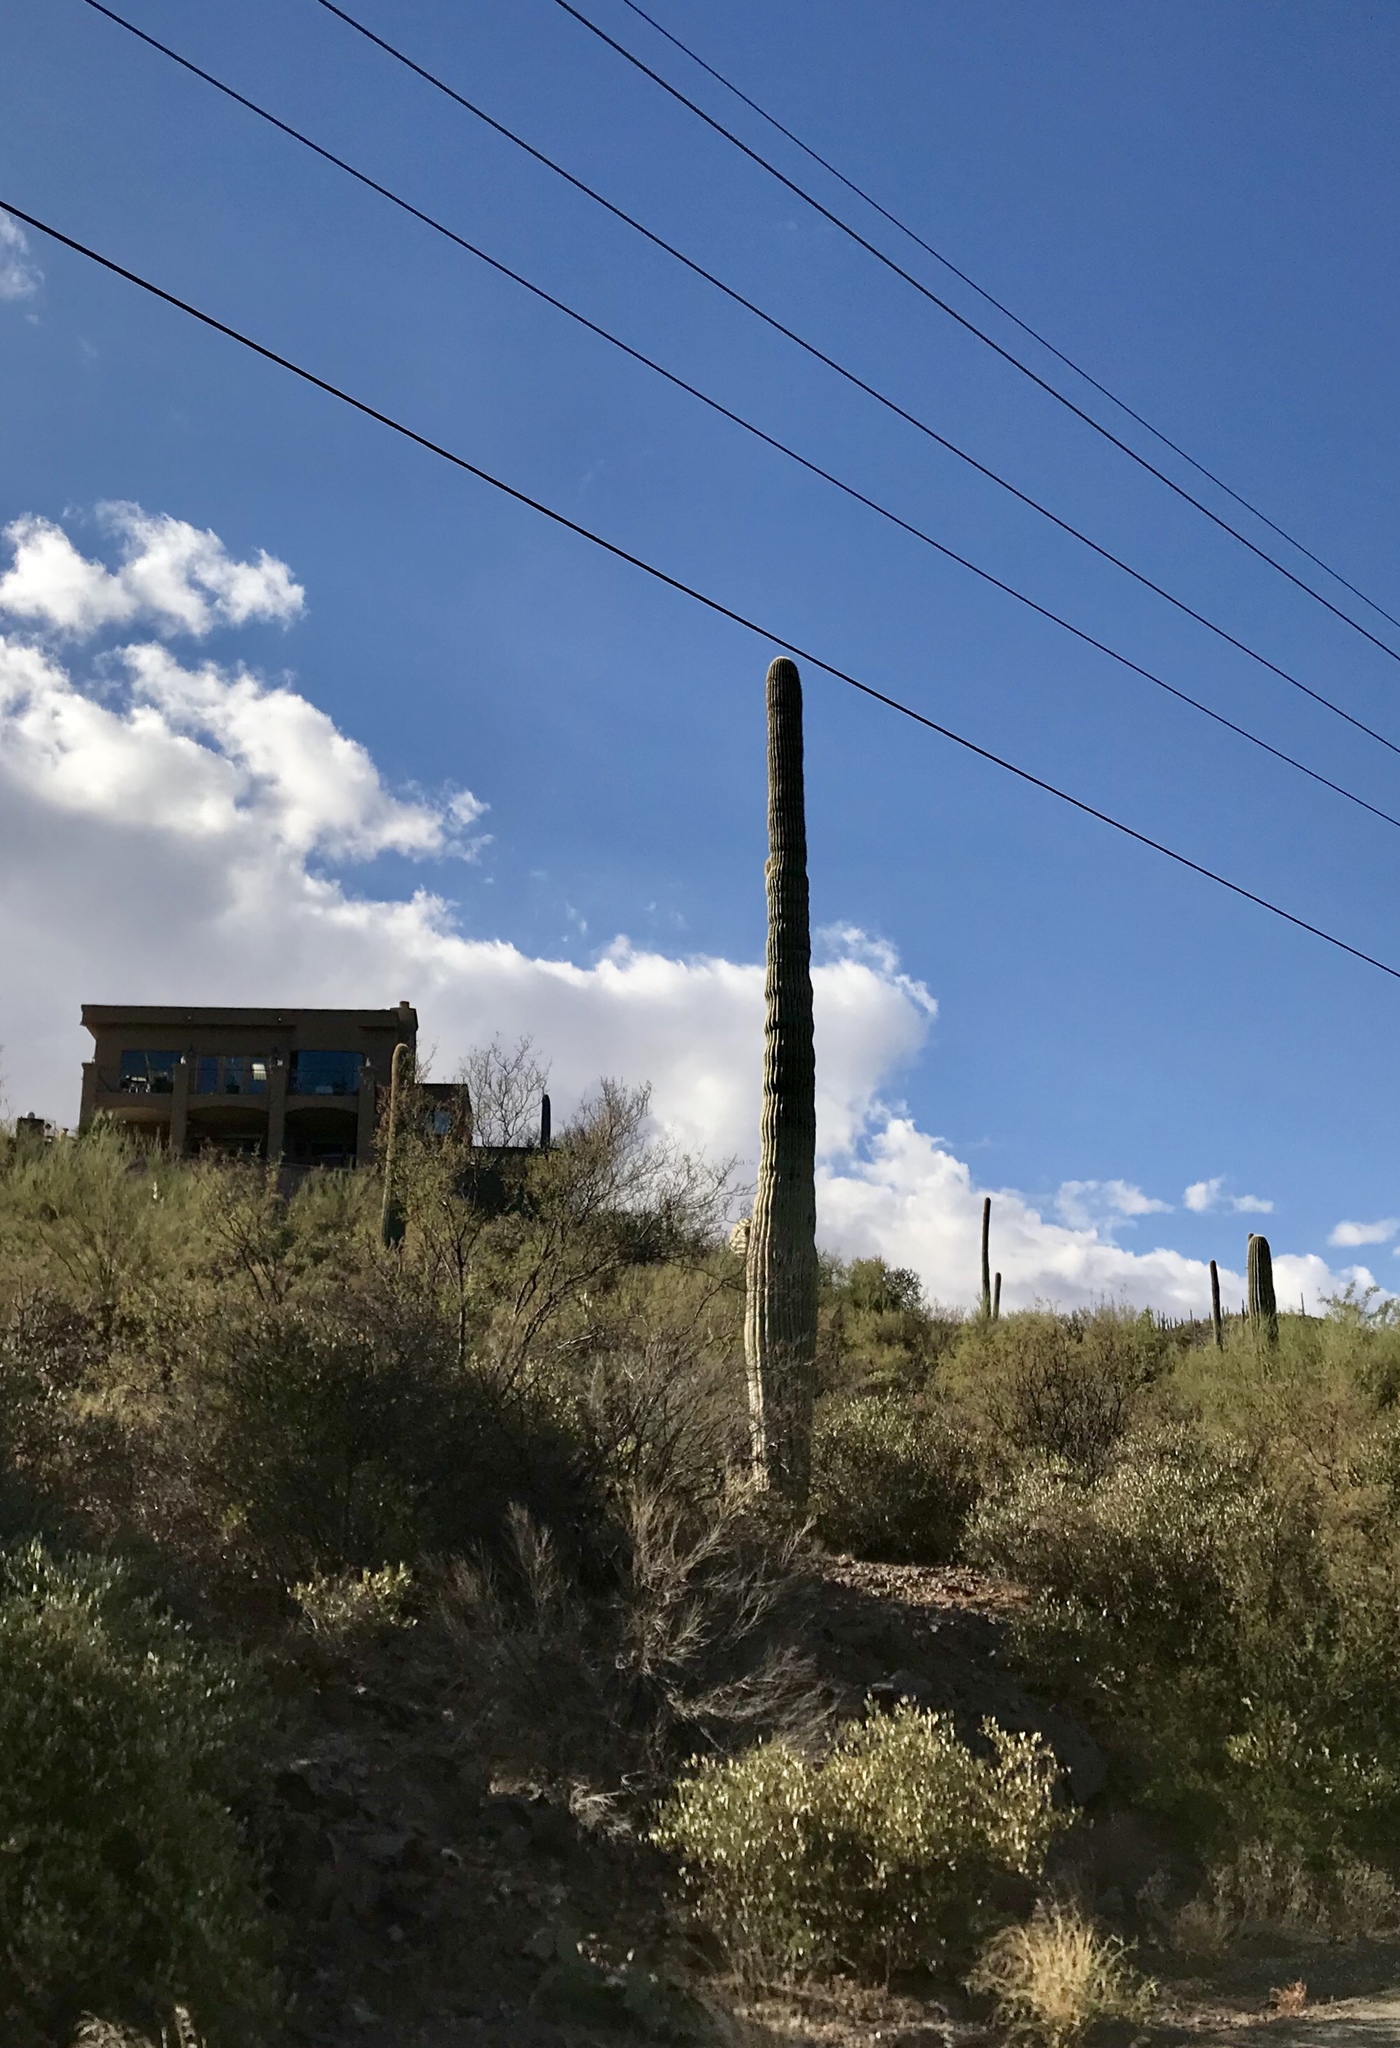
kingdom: Plantae
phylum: Tracheophyta
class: Magnoliopsida
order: Caryophyllales
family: Cactaceae
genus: Carnegiea
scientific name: Carnegiea gigantea
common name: Saguaro
